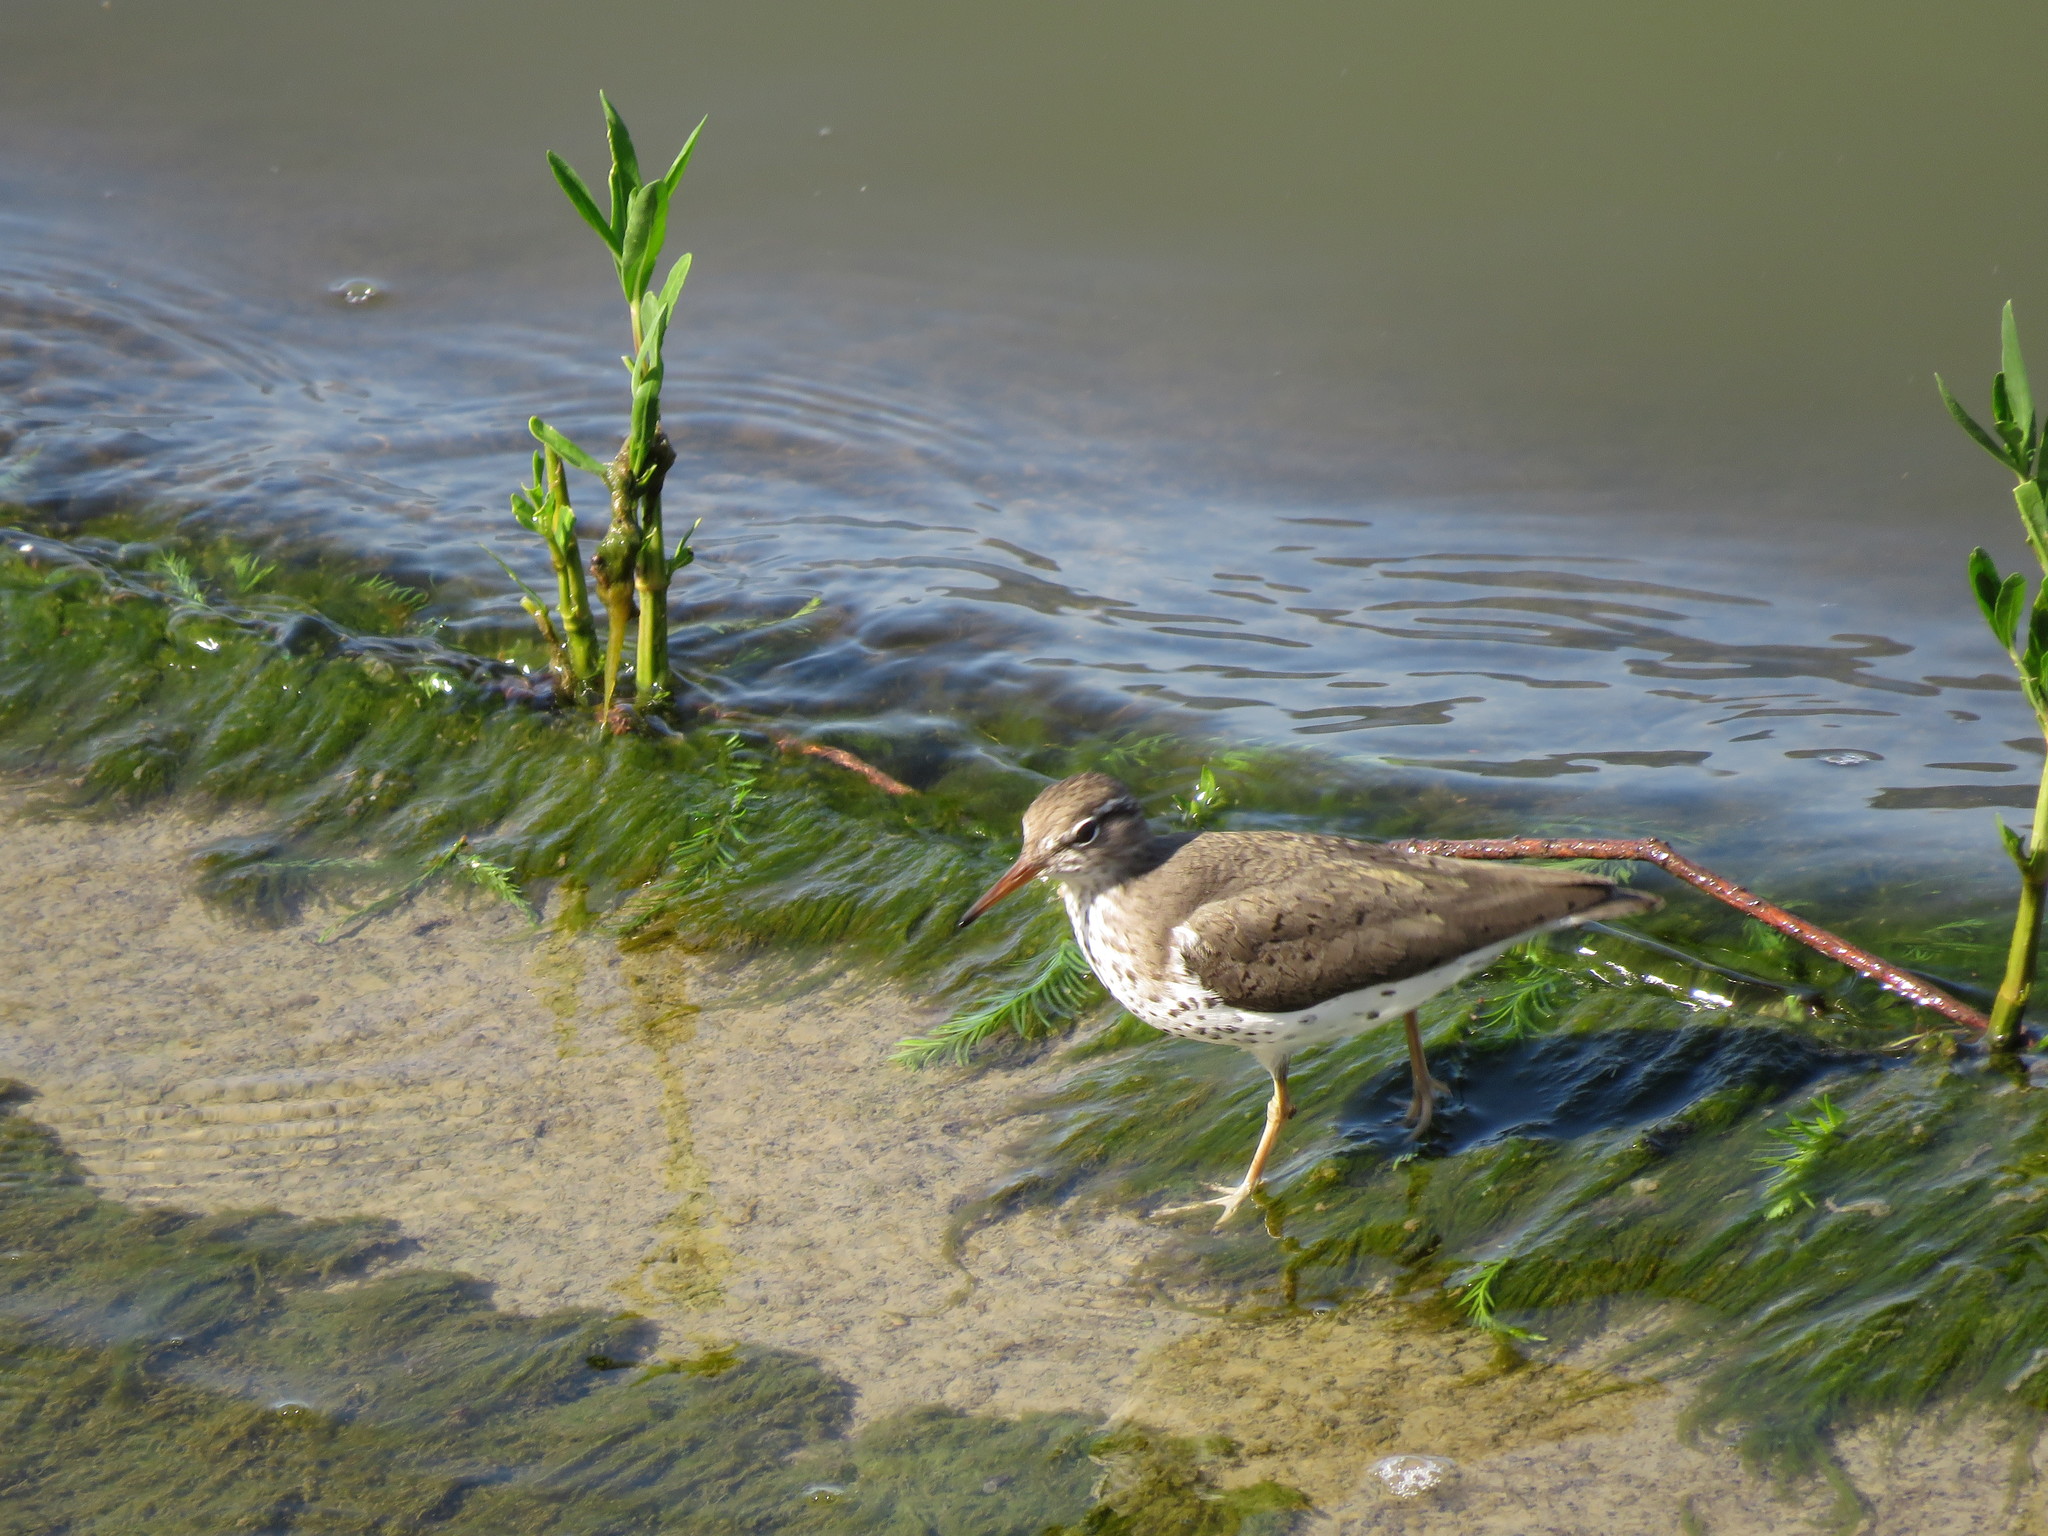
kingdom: Animalia
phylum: Chordata
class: Aves
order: Charadriiformes
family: Scolopacidae
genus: Actitis
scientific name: Actitis macularius
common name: Spotted sandpiper
